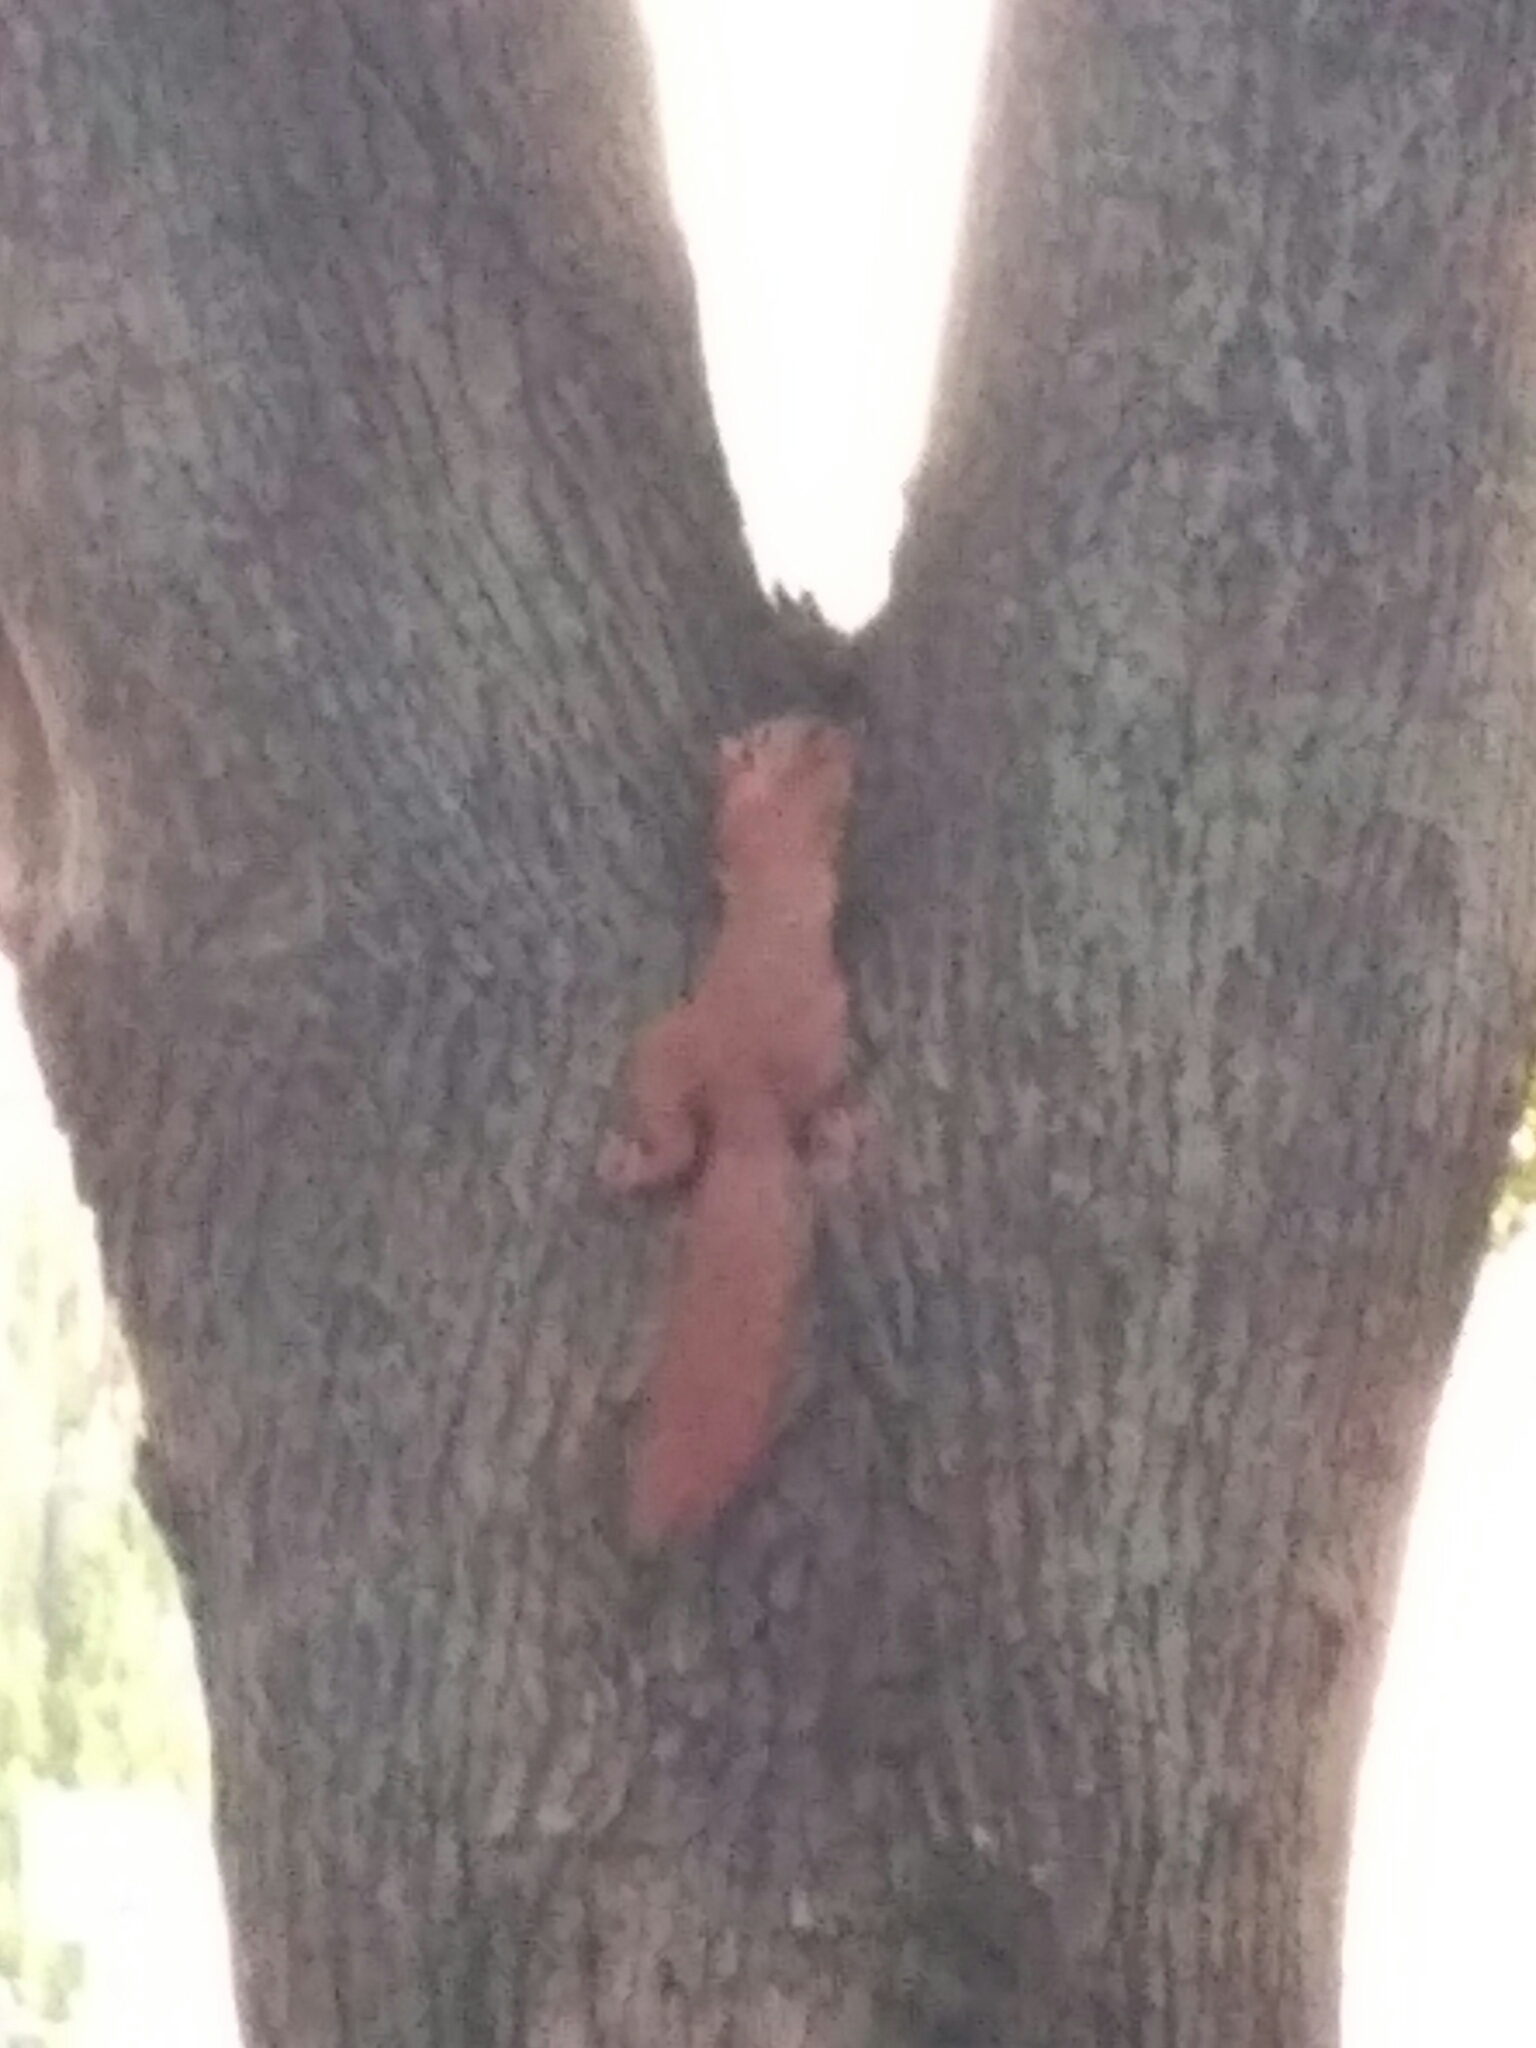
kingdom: Animalia
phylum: Chordata
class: Mammalia
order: Rodentia
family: Sciuridae
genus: Sciurus
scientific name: Sciurus vulgaris
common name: Eurasian red squirrel
